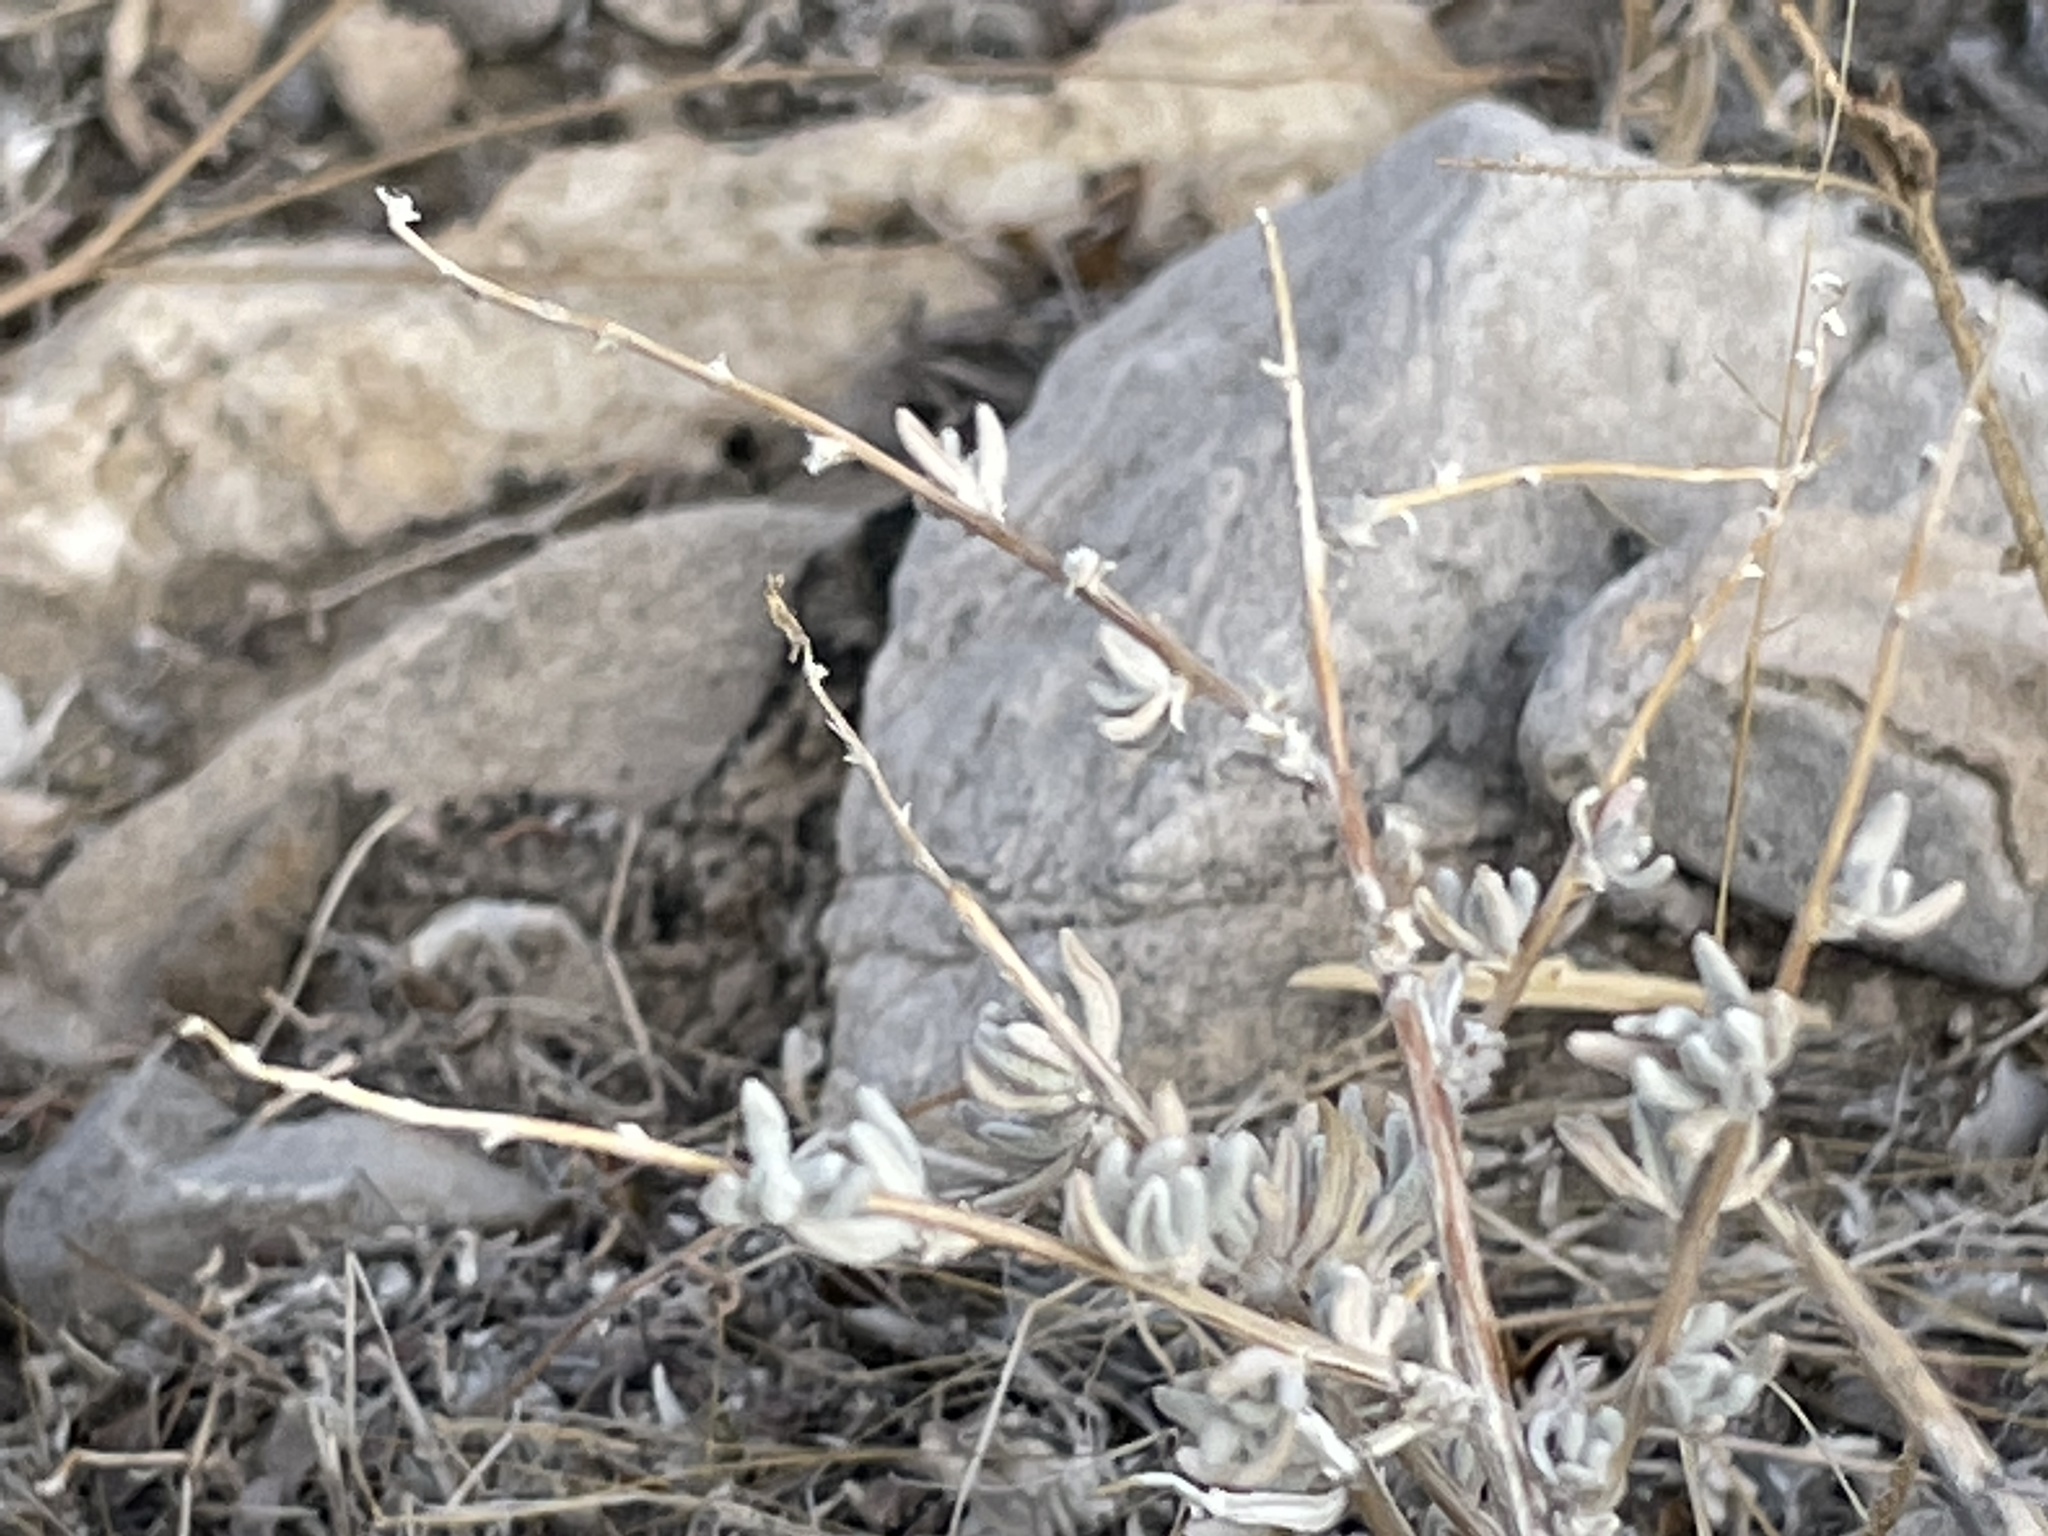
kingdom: Plantae
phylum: Tracheophyta
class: Magnoliopsida
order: Caryophyllales
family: Amaranthaceae
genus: Krascheninnikovia
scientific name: Krascheninnikovia lanata
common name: Winterfat
